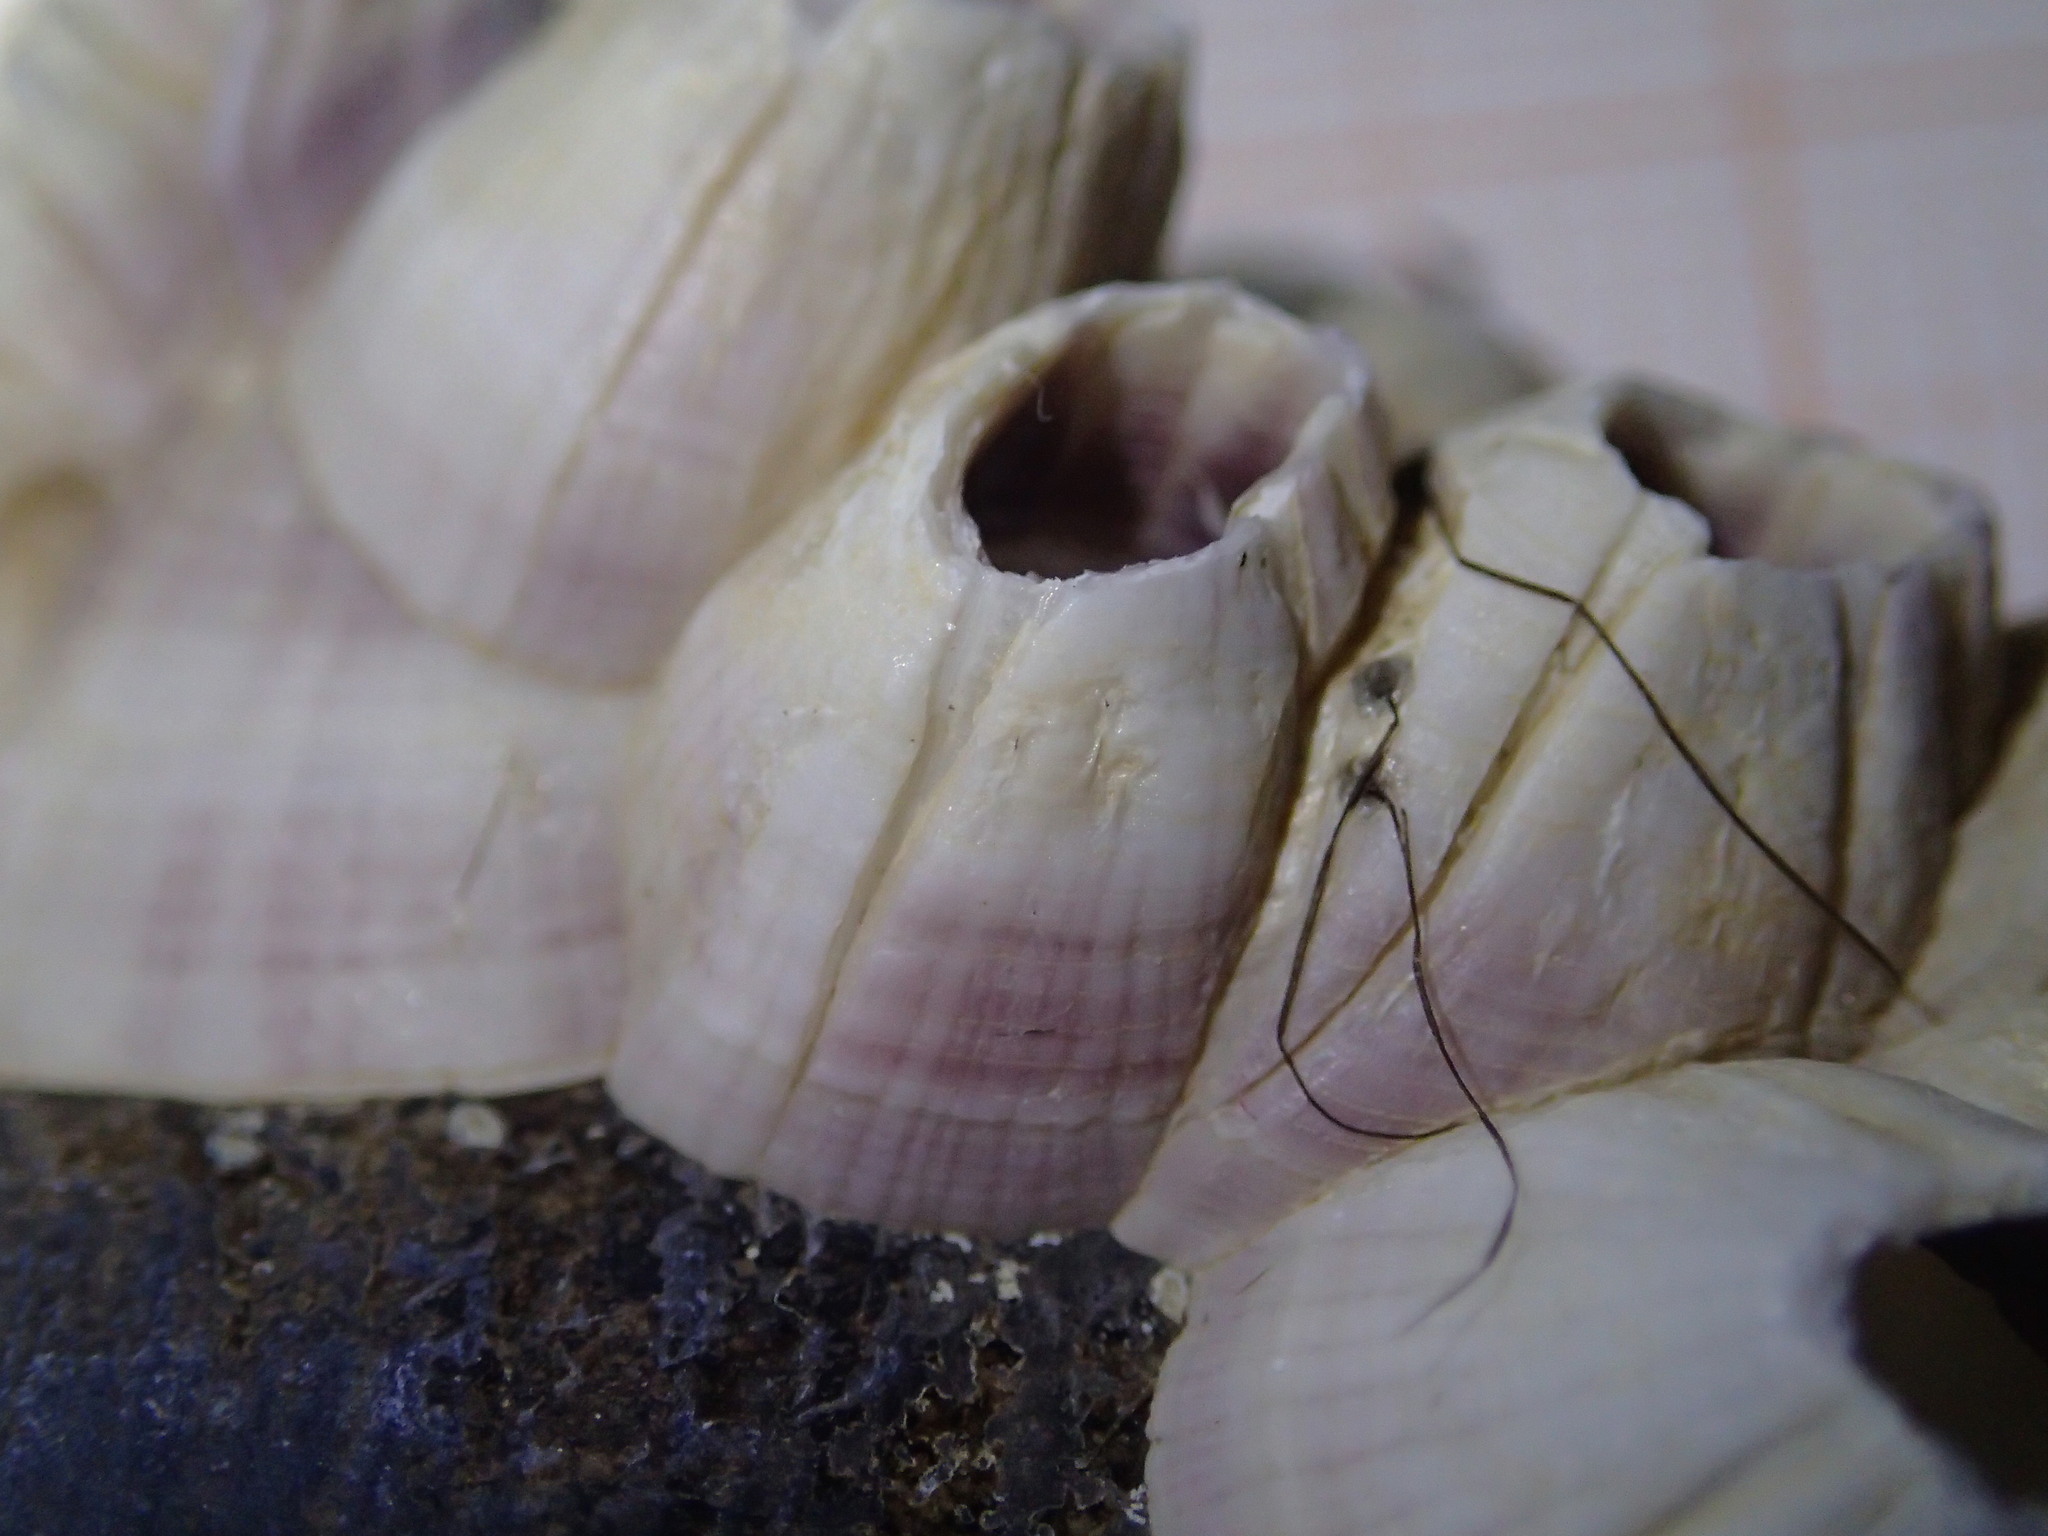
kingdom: Animalia
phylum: Arthropoda
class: Maxillopoda
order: Sessilia
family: Balanidae
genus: Perforatus
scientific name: Perforatus perforatus
